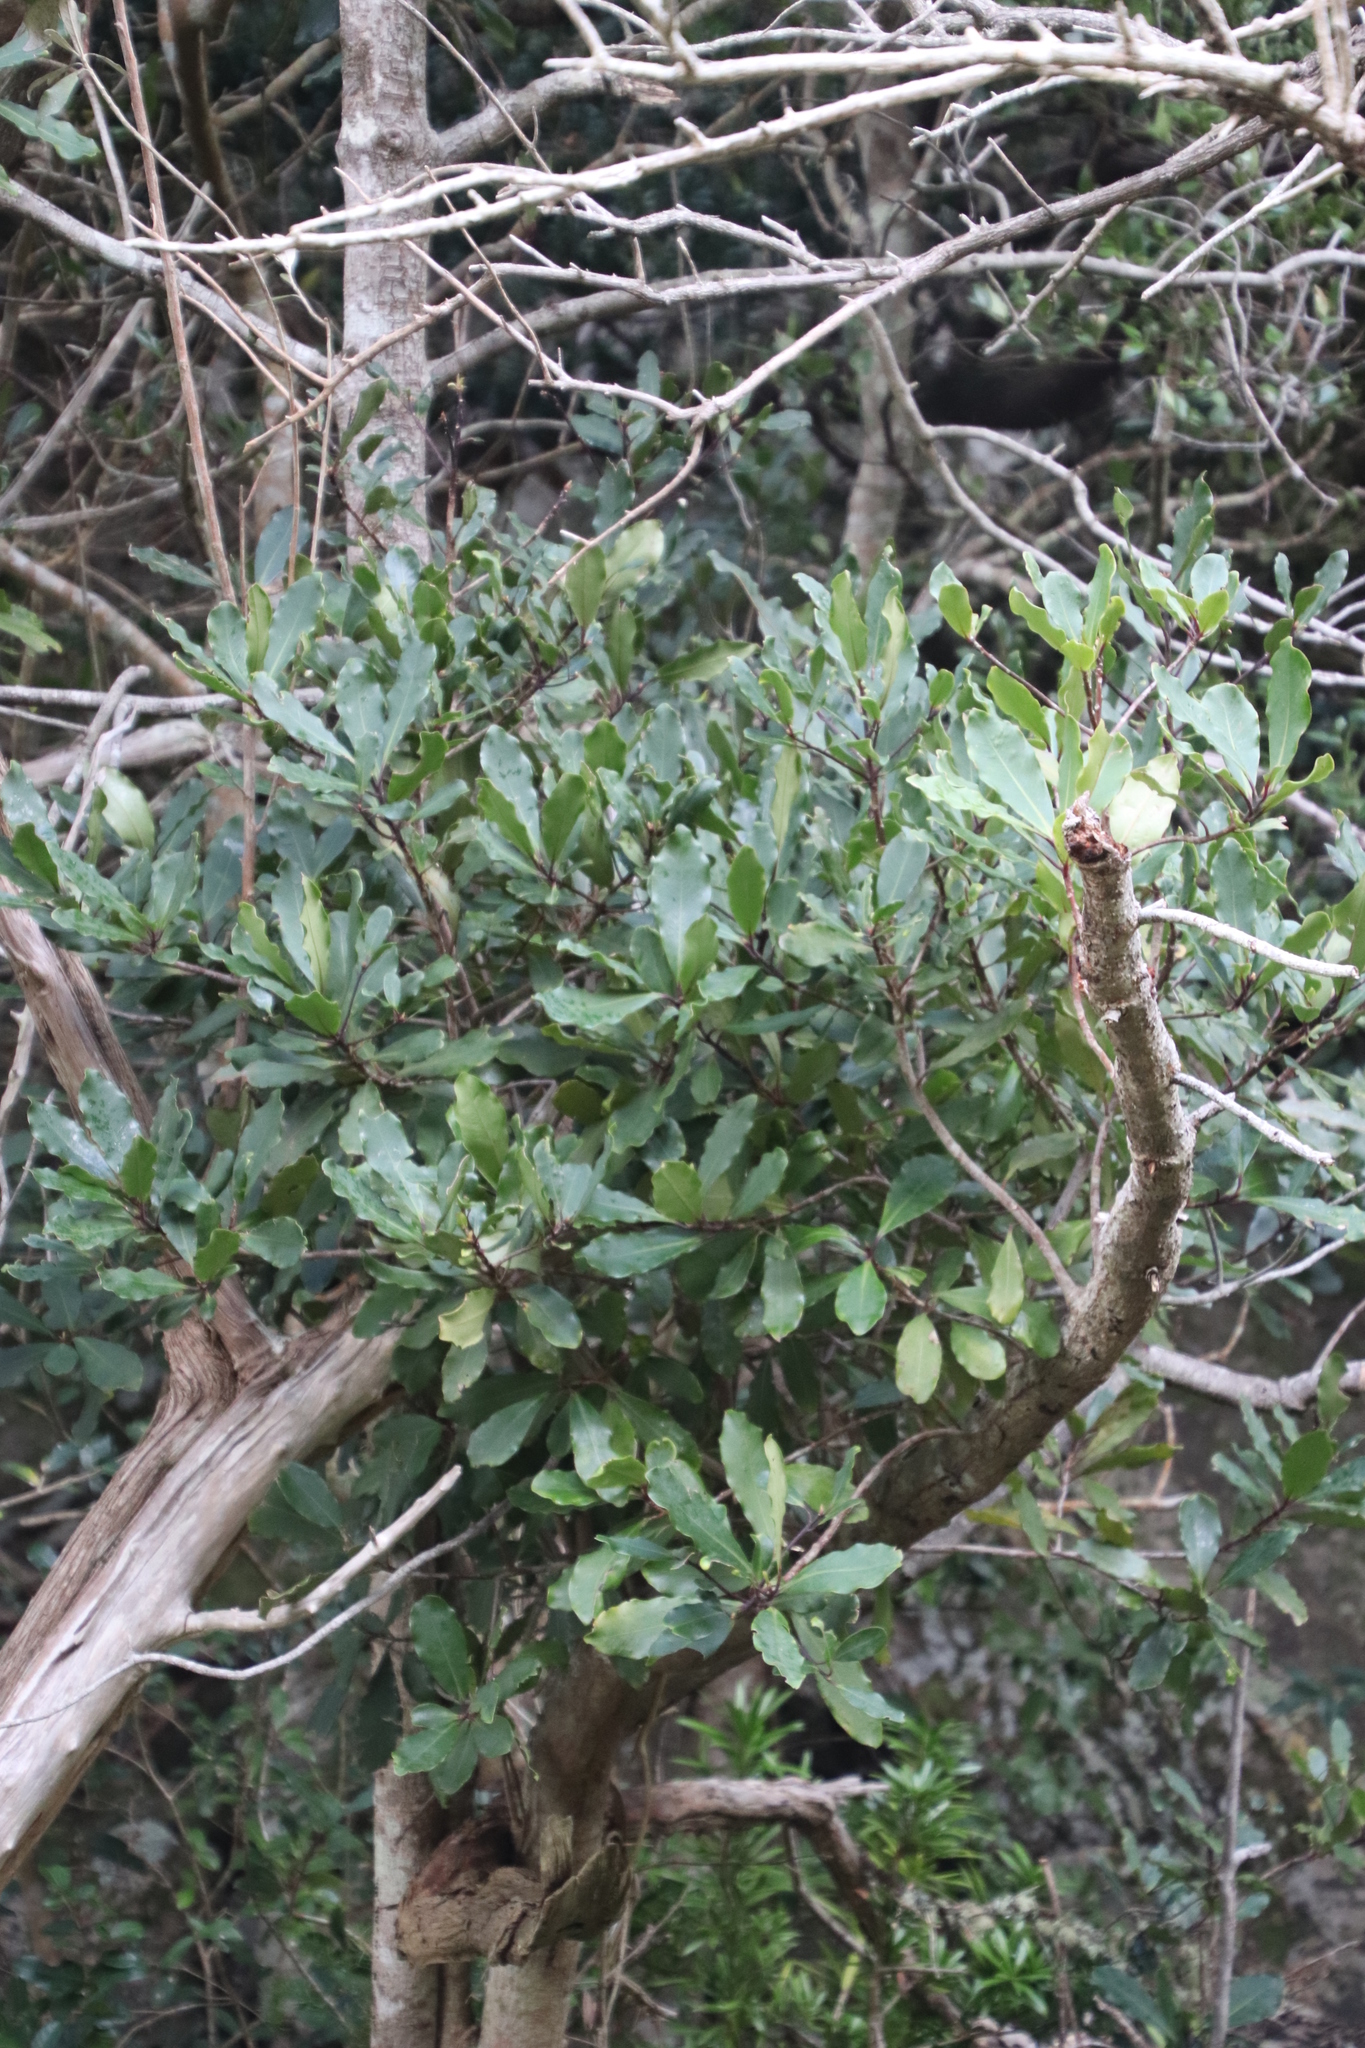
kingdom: Plantae
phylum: Tracheophyta
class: Magnoliopsida
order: Ericales
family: Primulaceae
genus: Myrsine
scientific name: Myrsine melanophloeos
